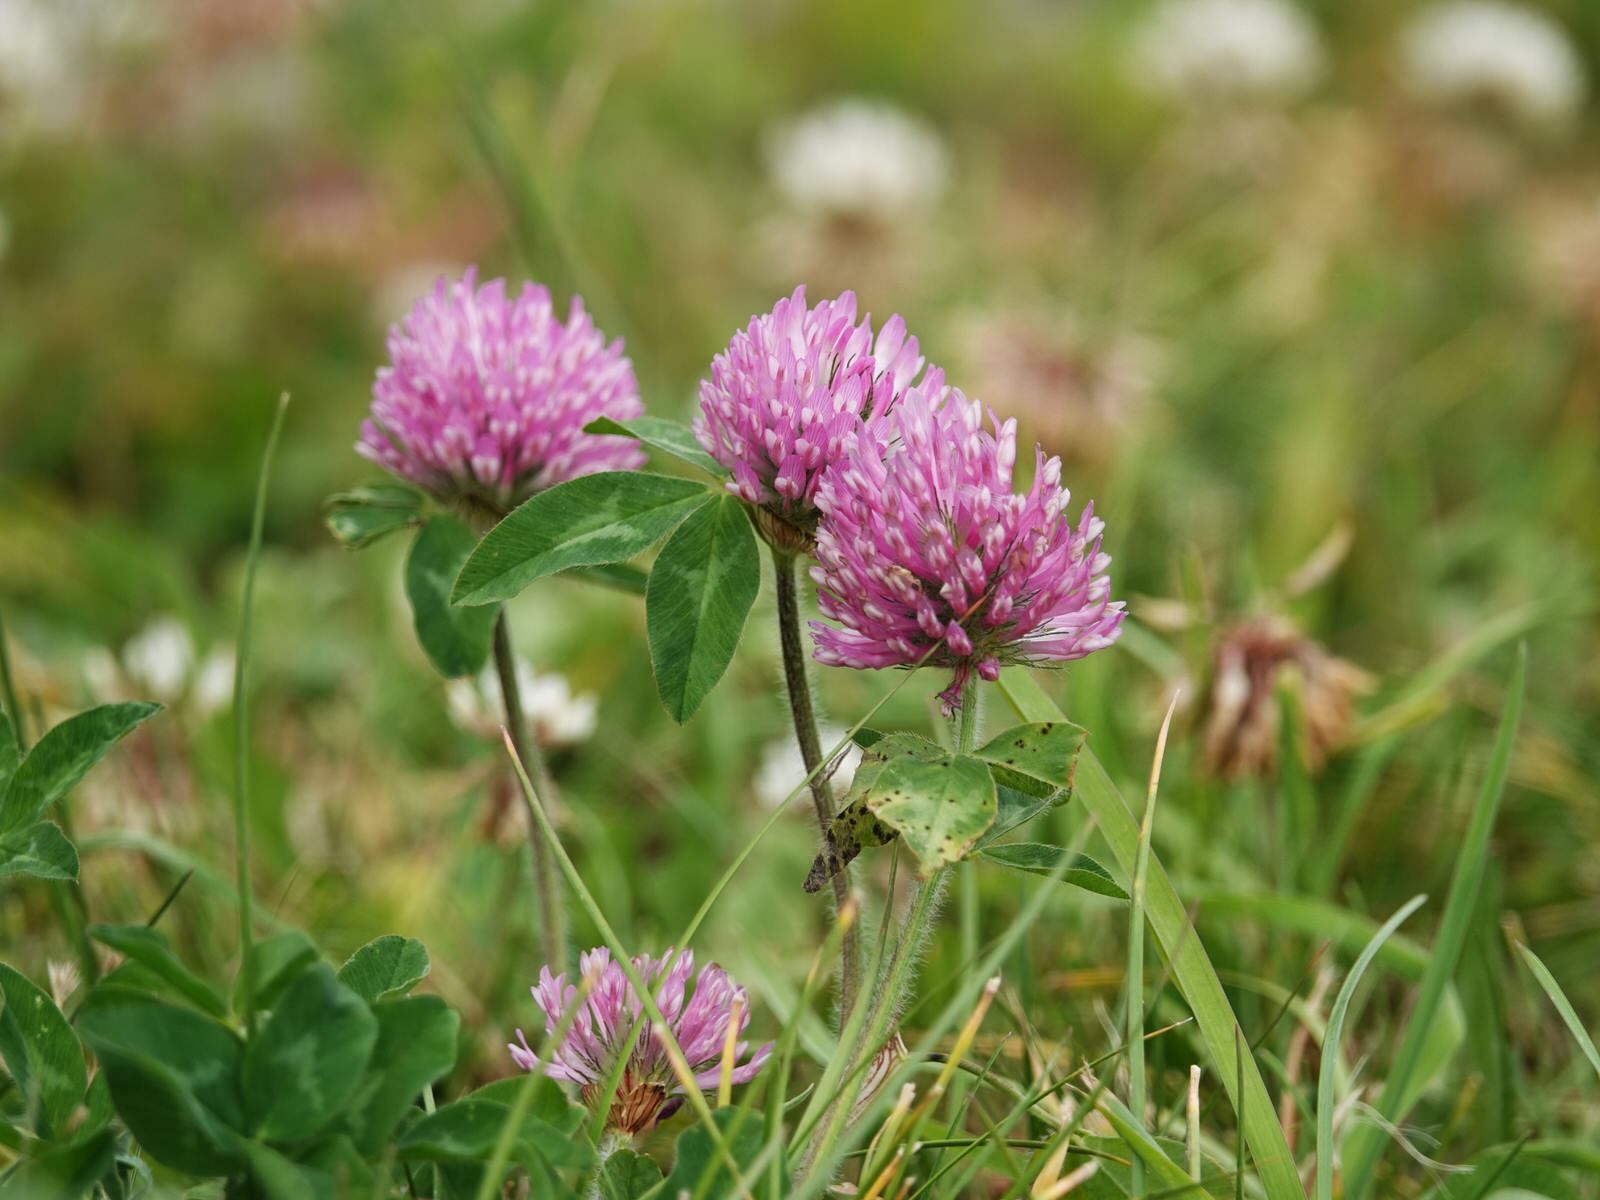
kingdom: Plantae
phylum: Tracheophyta
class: Magnoliopsida
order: Fabales
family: Fabaceae
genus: Trifolium
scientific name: Trifolium pratense
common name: Red clover
